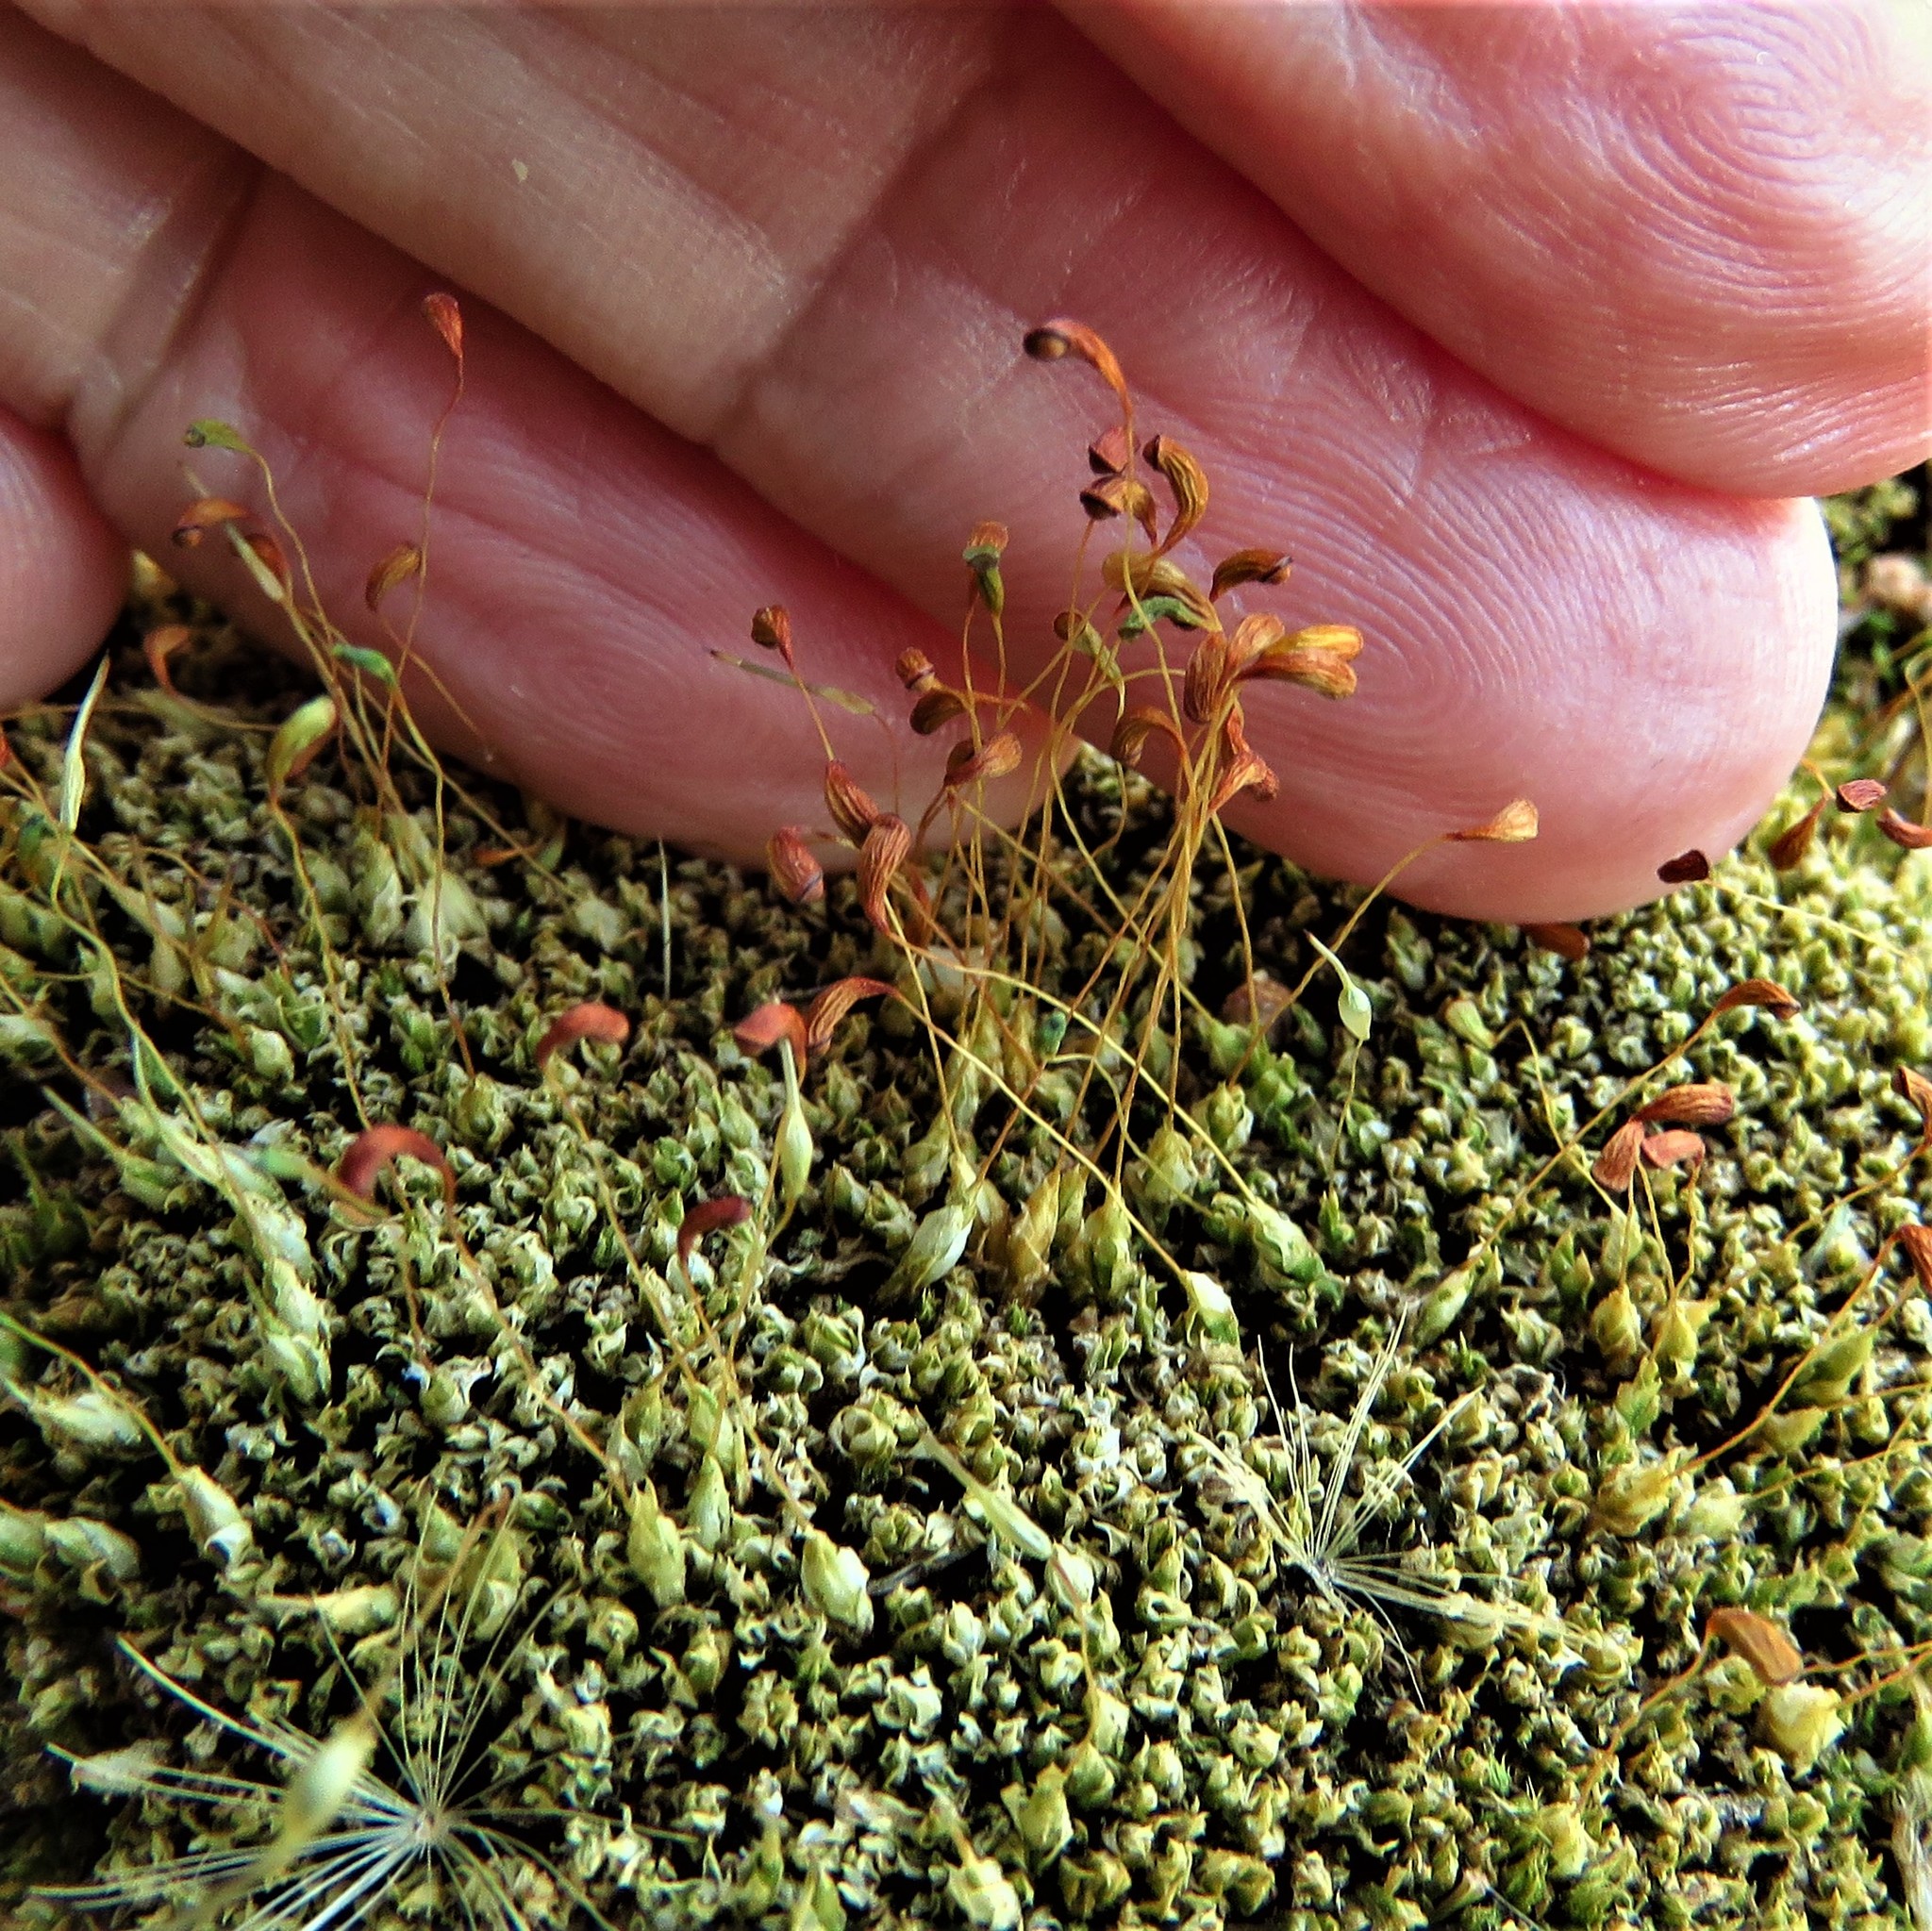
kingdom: Plantae
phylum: Bryophyta
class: Bryopsida
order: Funariales
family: Funariaceae
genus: Funaria
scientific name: Funaria hygrometrica
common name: Common cord moss
